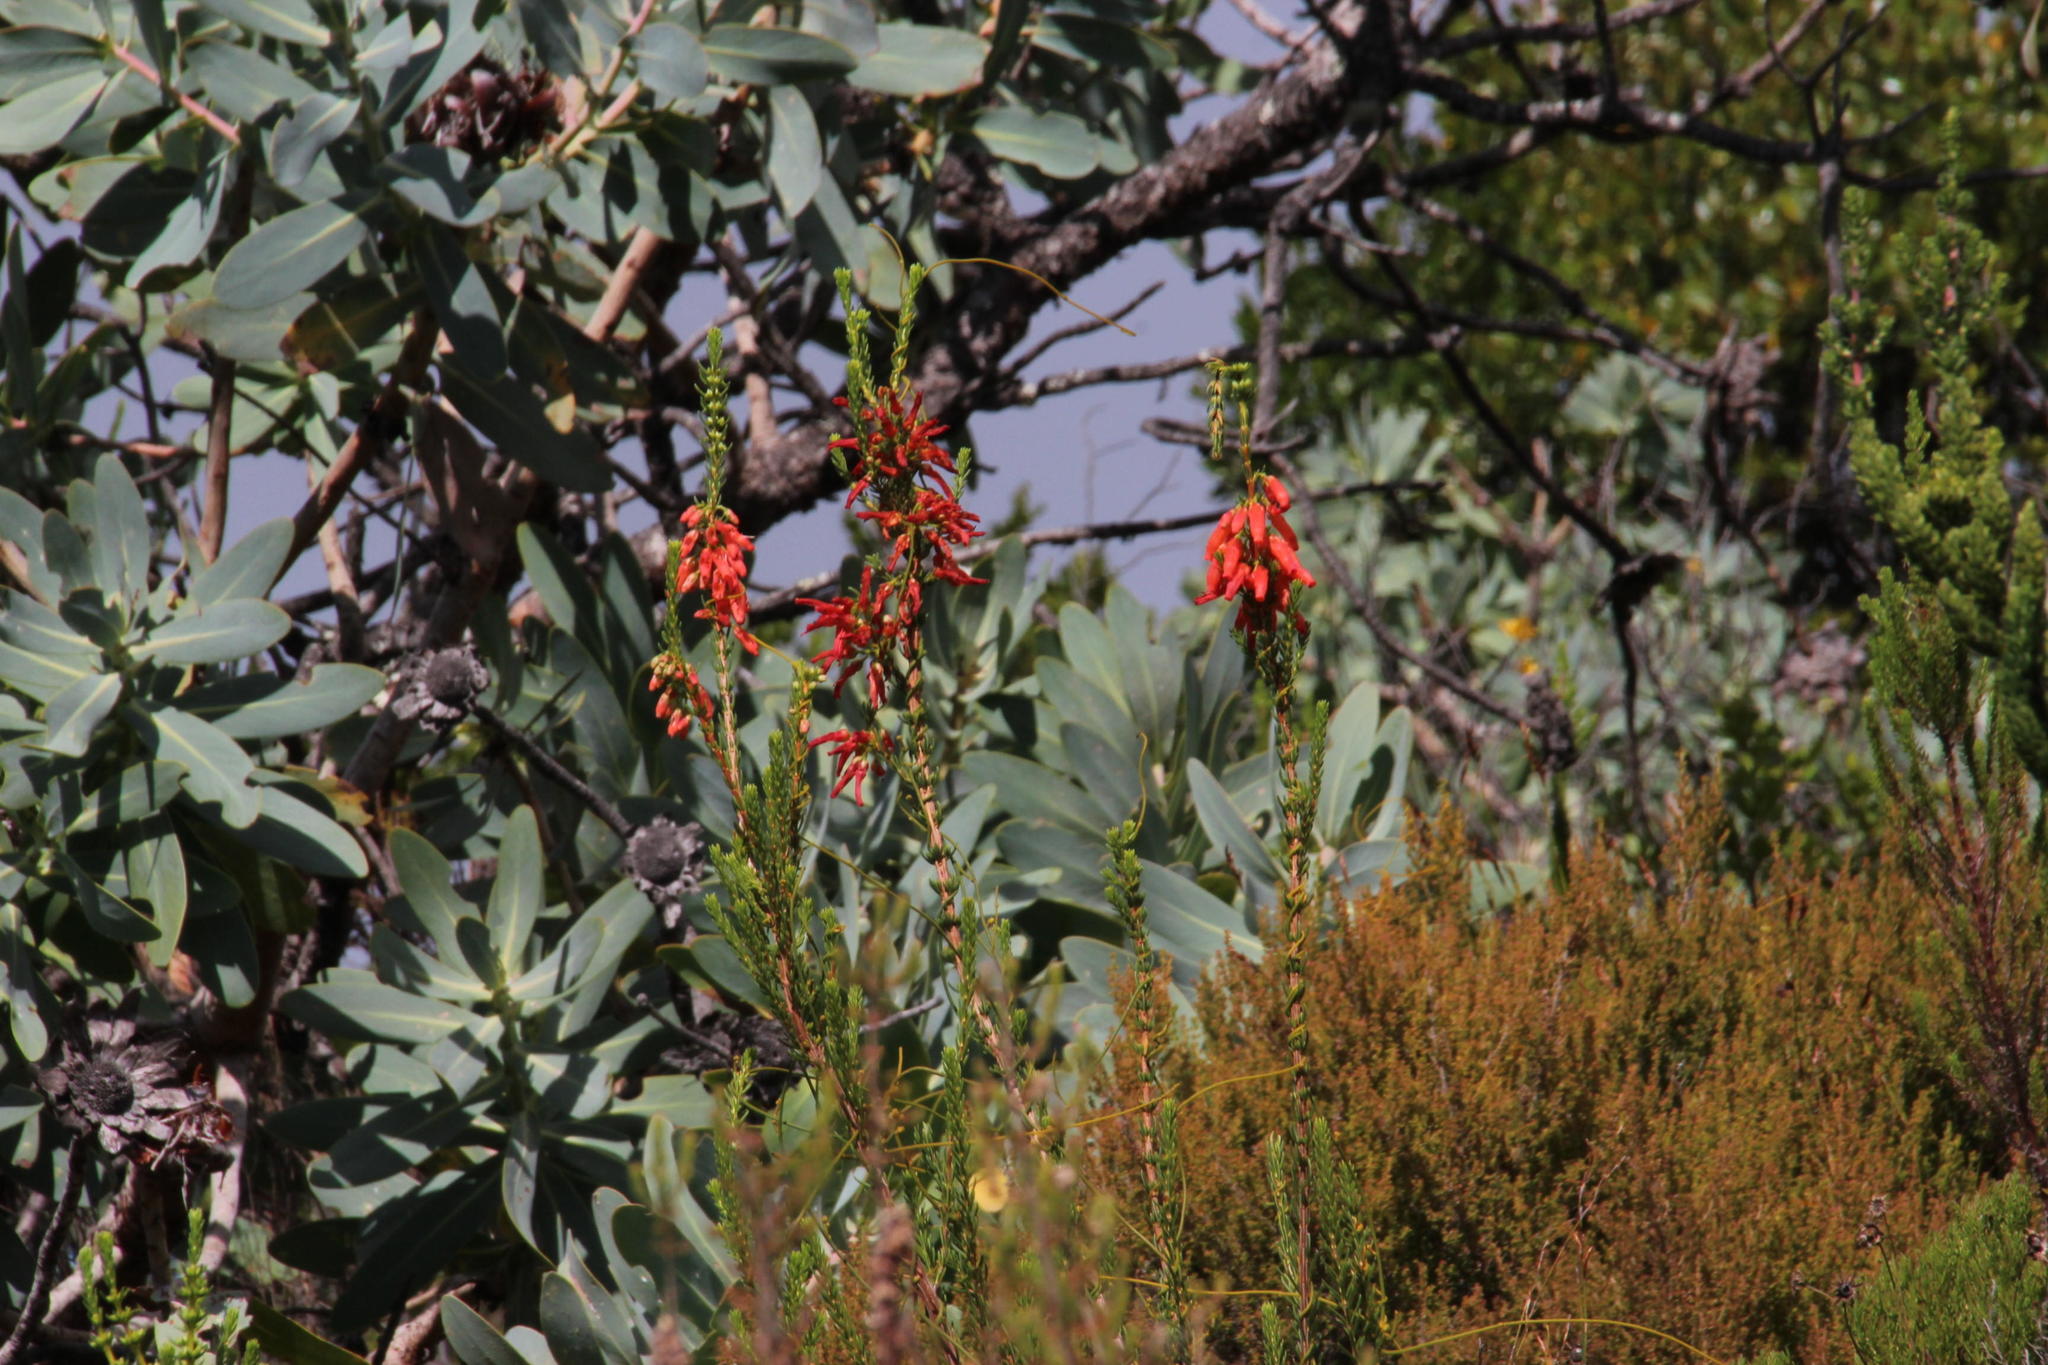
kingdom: Plantae
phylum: Tracheophyta
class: Magnoliopsida
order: Ericales
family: Ericaceae
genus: Erica
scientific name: Erica mammosa
